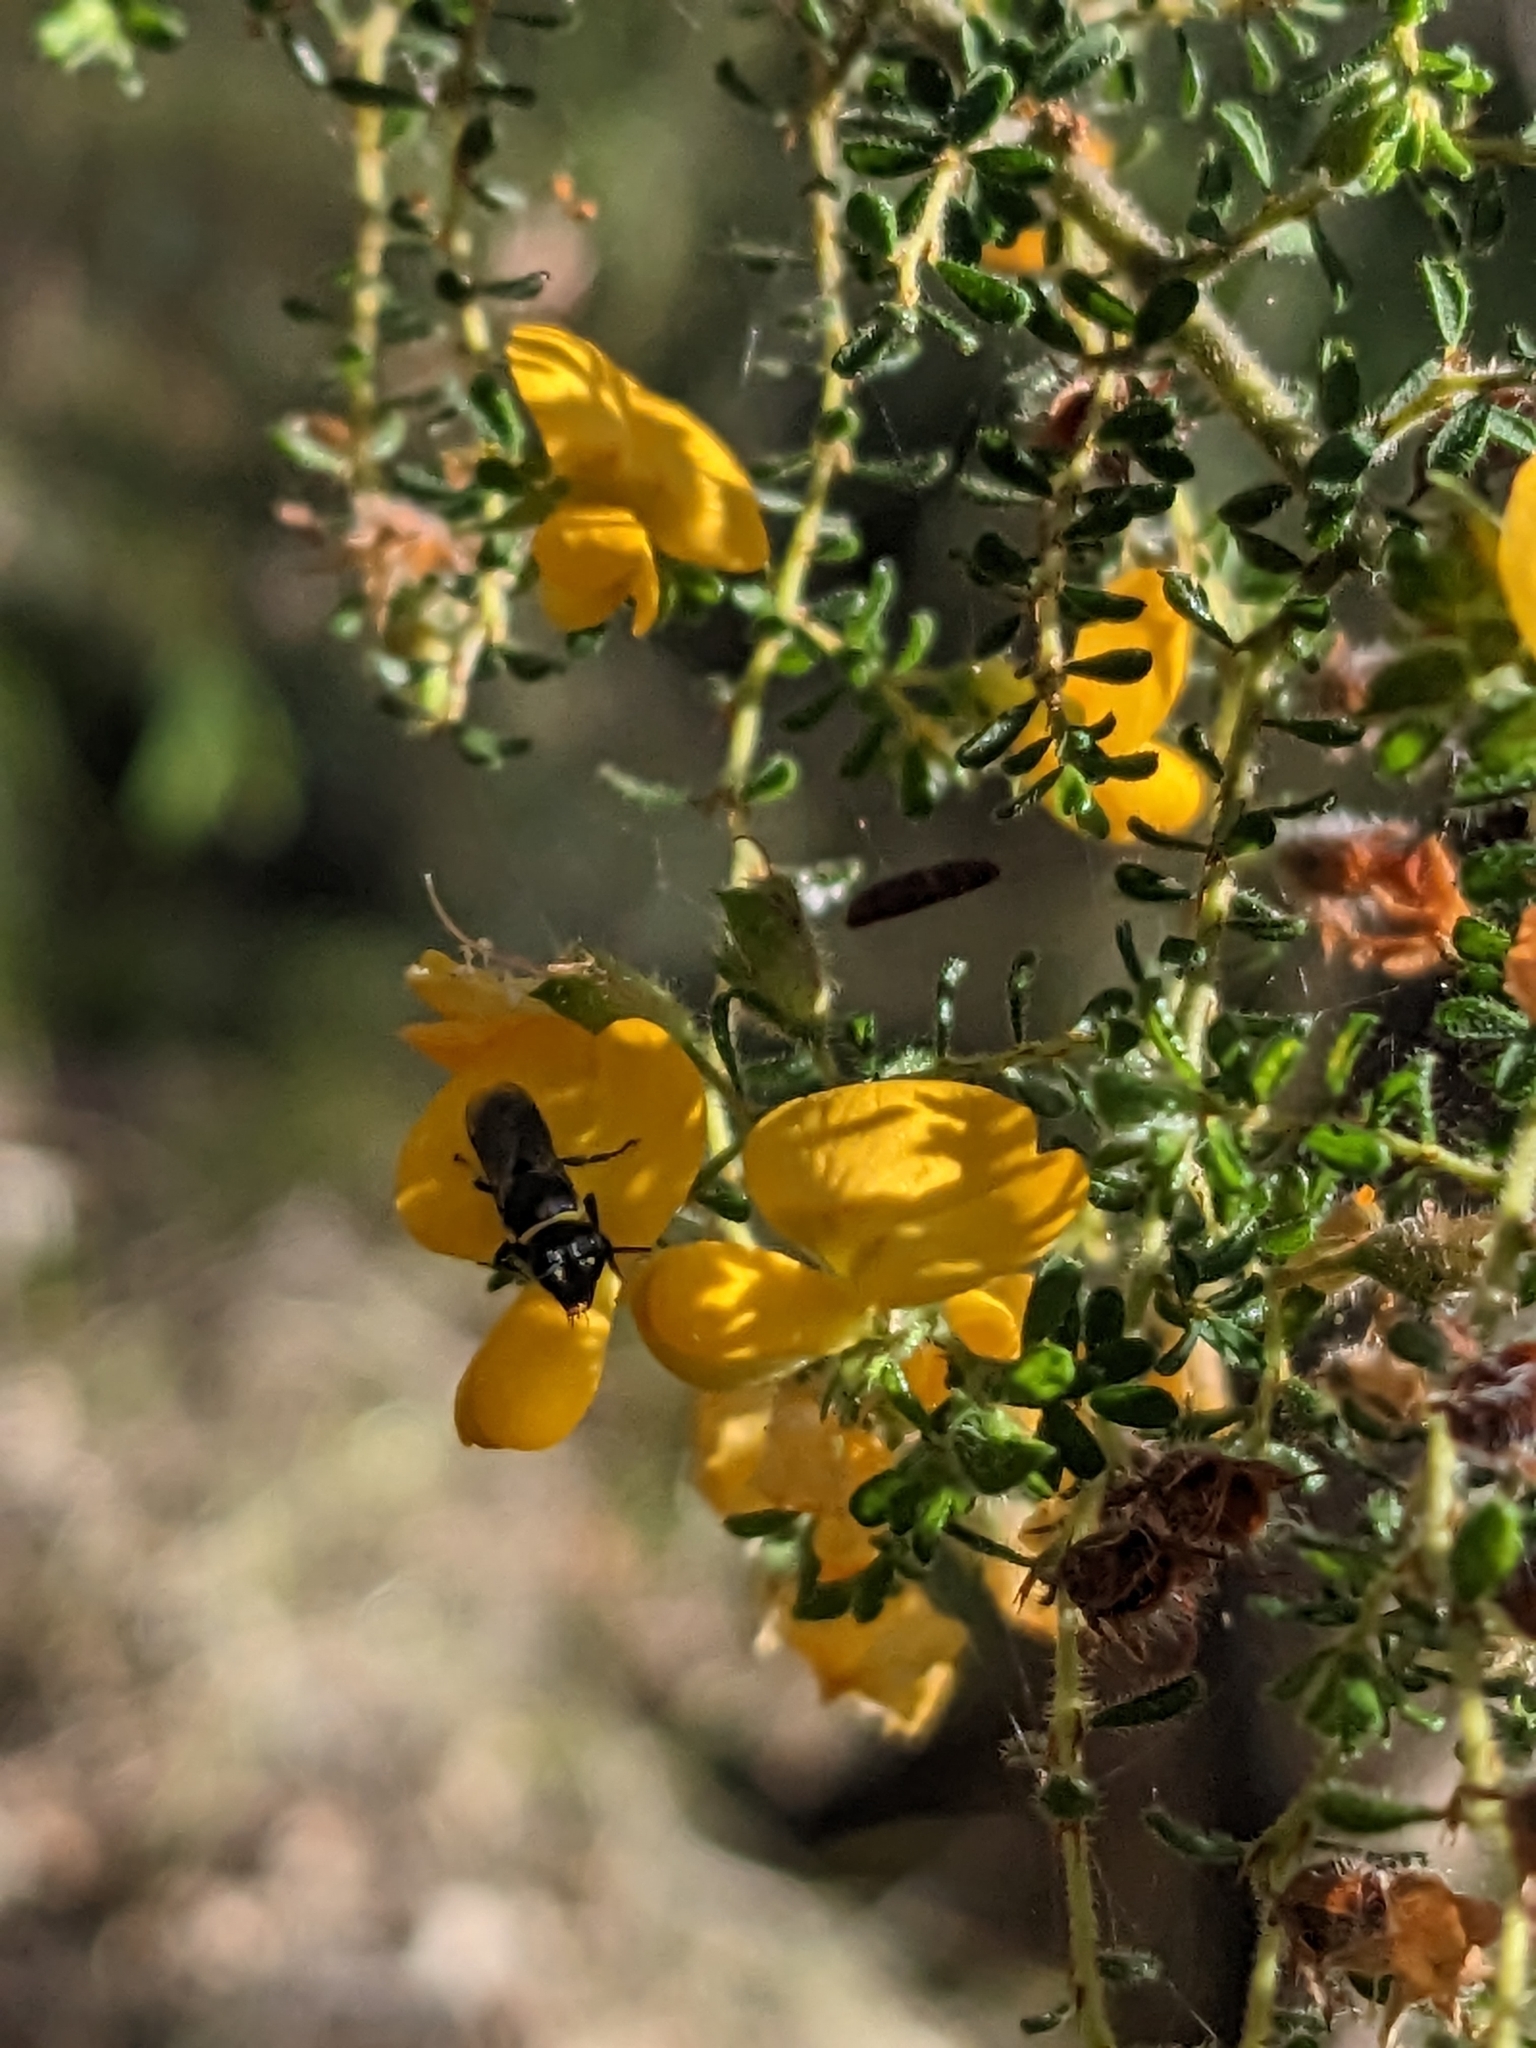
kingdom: Plantae
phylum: Tracheophyta
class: Magnoliopsida
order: Fabales
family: Fabaceae
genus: Pultenaea
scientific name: Pultenaea villosa
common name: Bronze bush-pea
